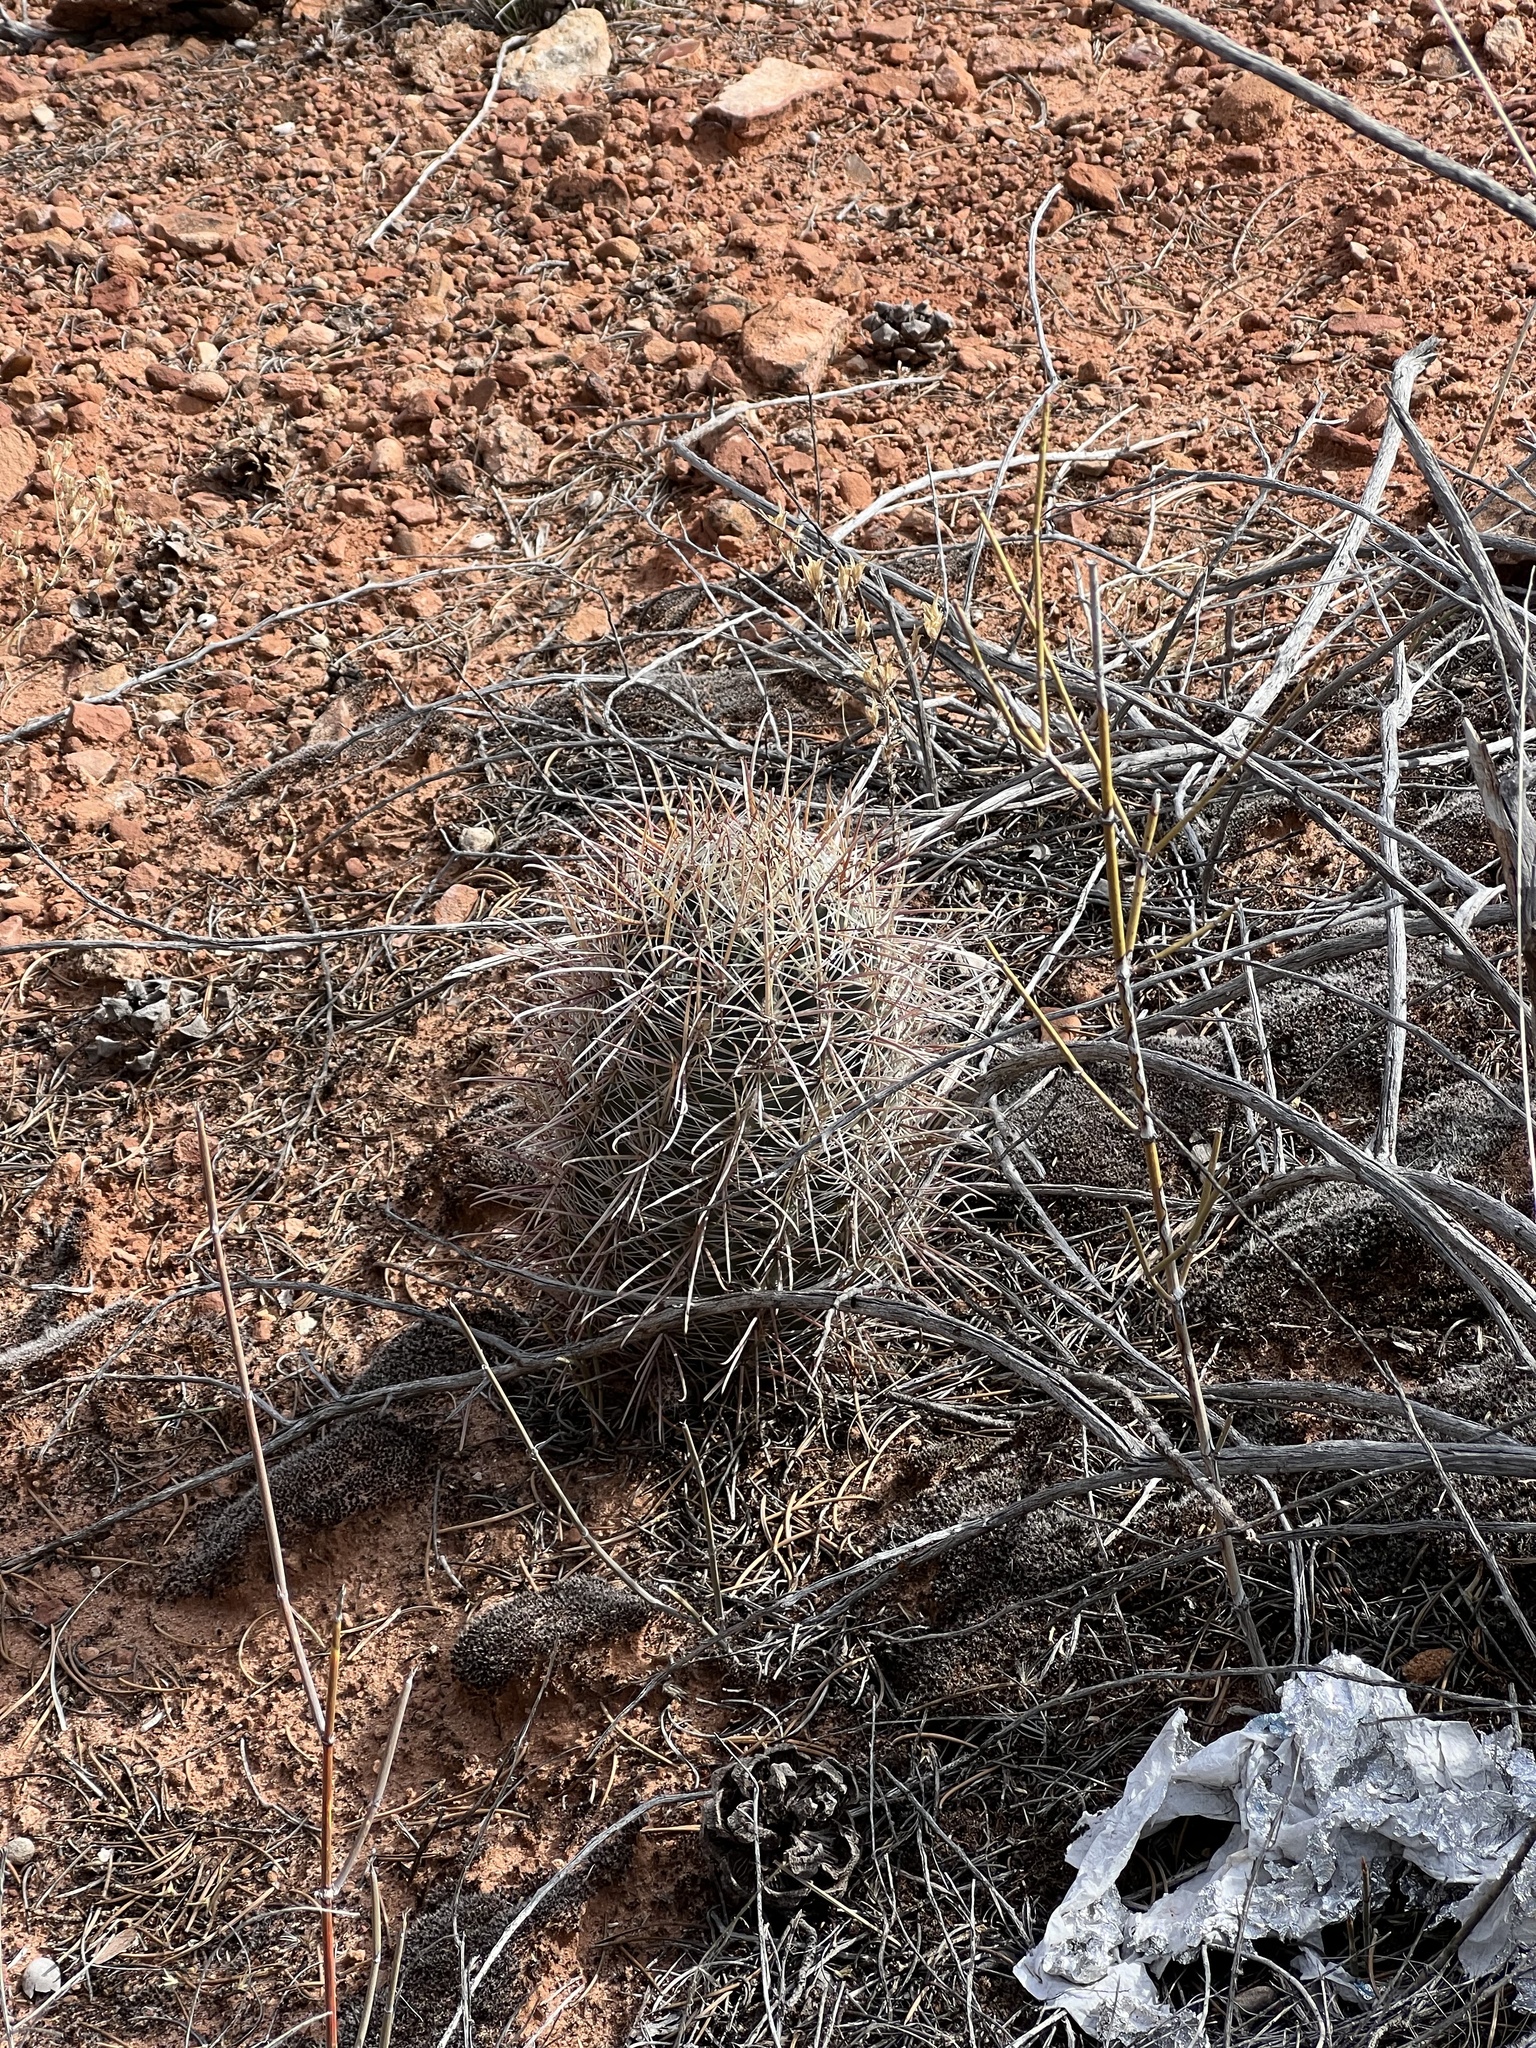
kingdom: Plantae
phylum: Tracheophyta
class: Magnoliopsida
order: Caryophyllales
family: Cactaceae
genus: Sclerocactus
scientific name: Sclerocactus parviflorus
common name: Small-flower fishhook cactus
